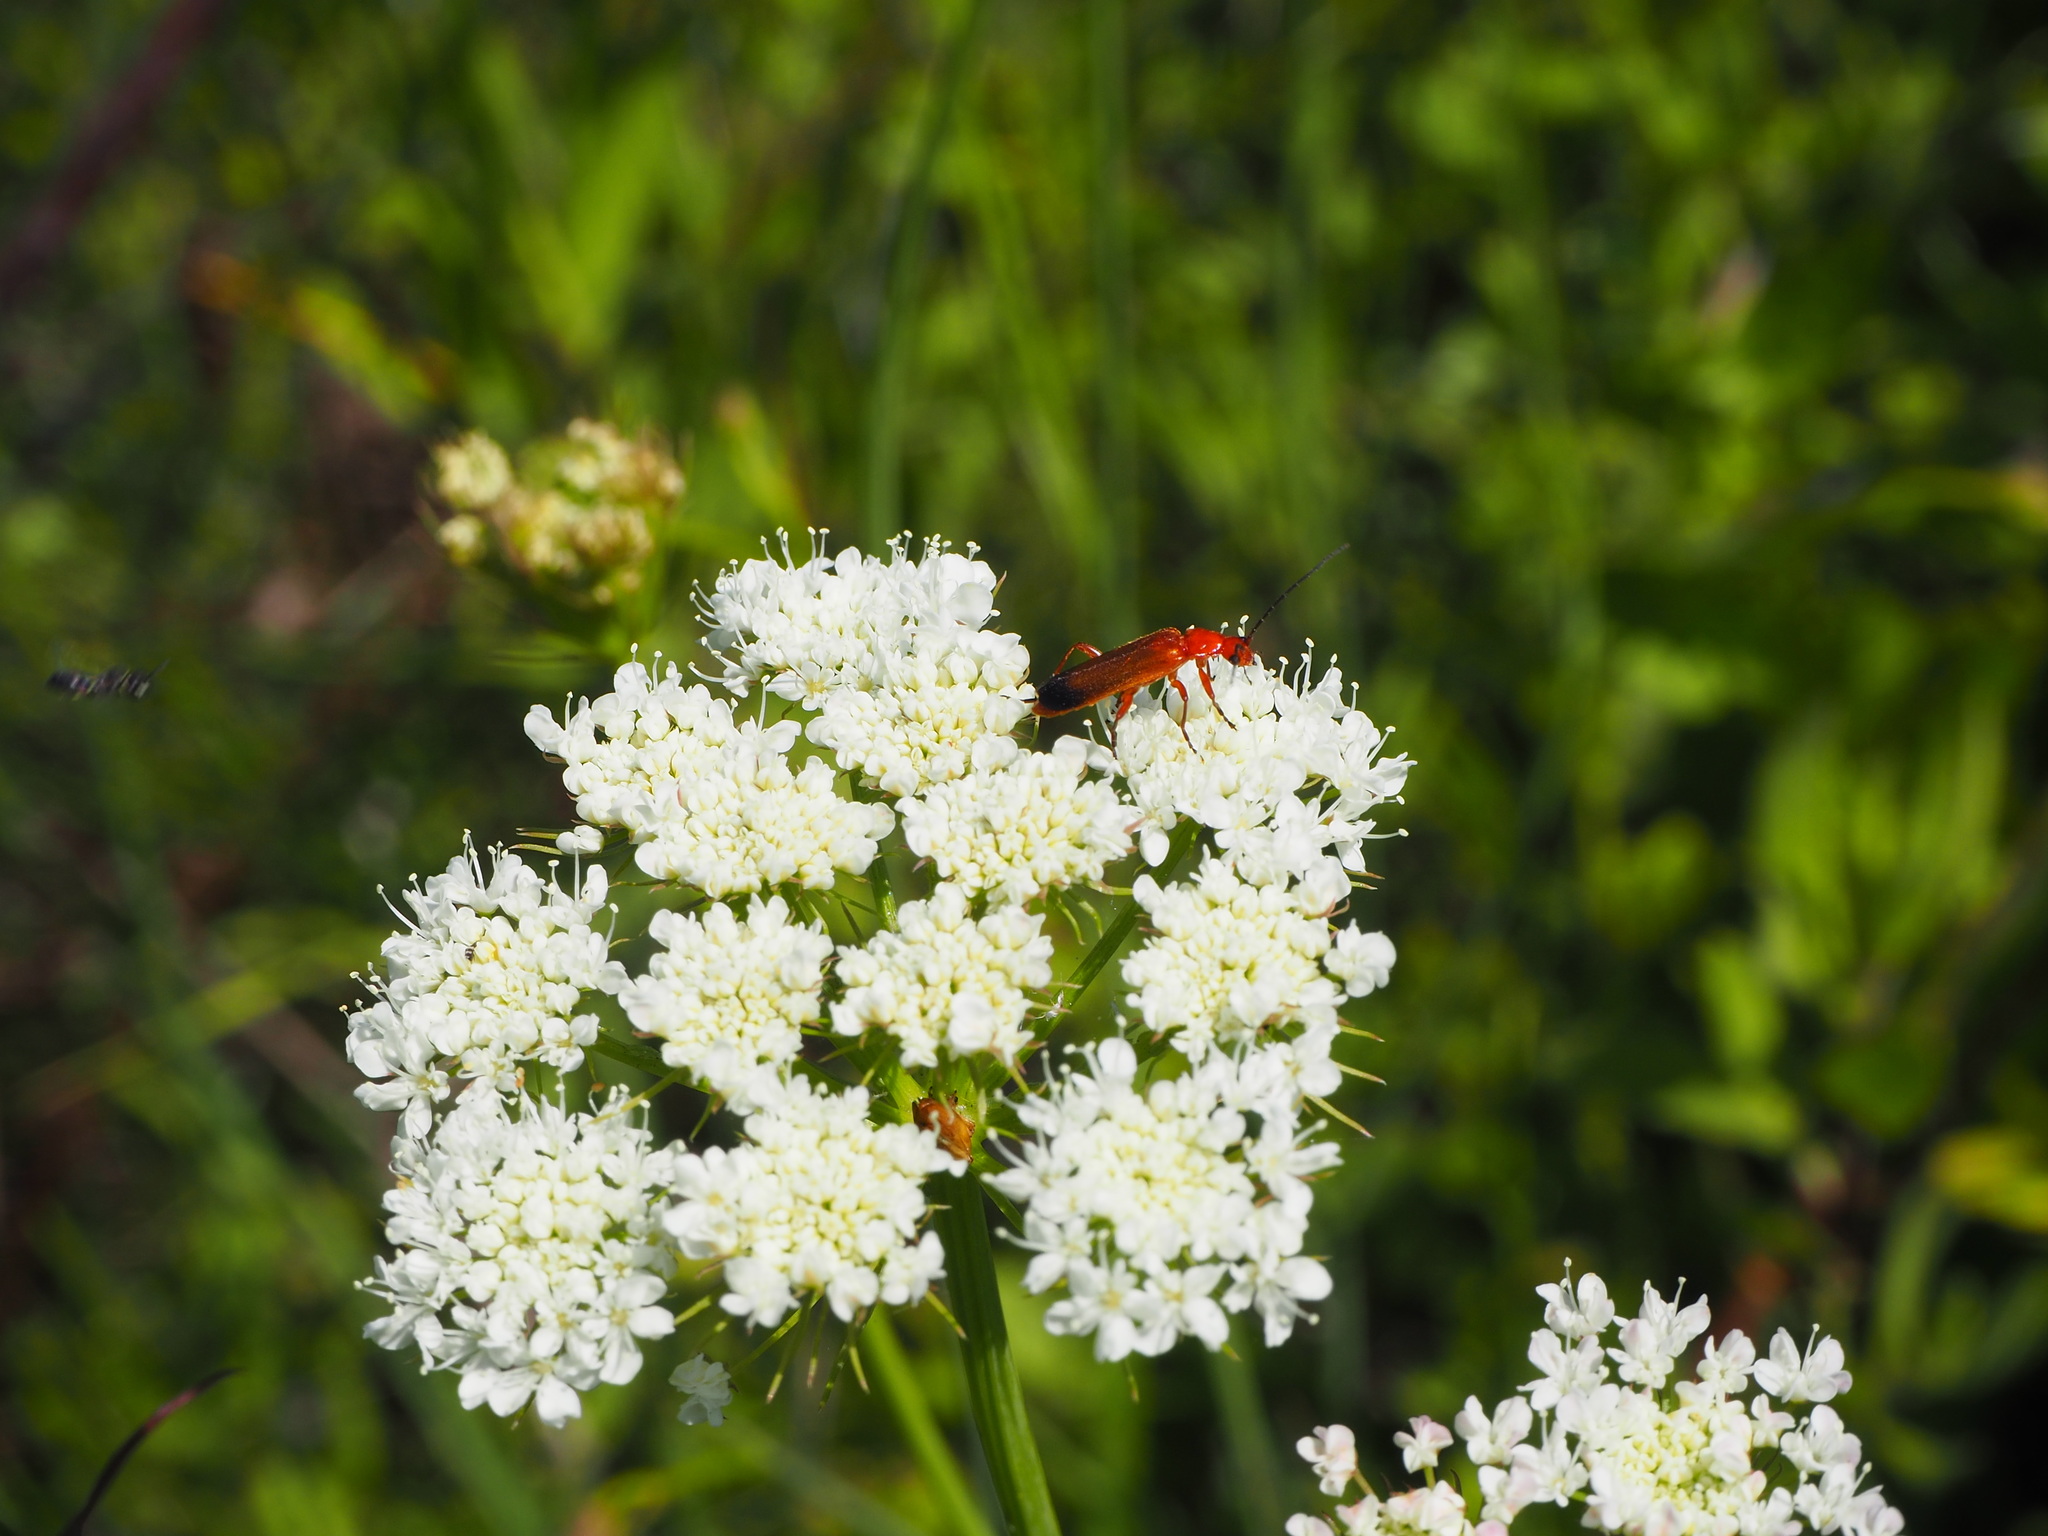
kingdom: Animalia
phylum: Arthropoda
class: Insecta
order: Coleoptera
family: Cantharidae
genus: Rhagonycha
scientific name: Rhagonycha fulva
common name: Common red soldier beetle
